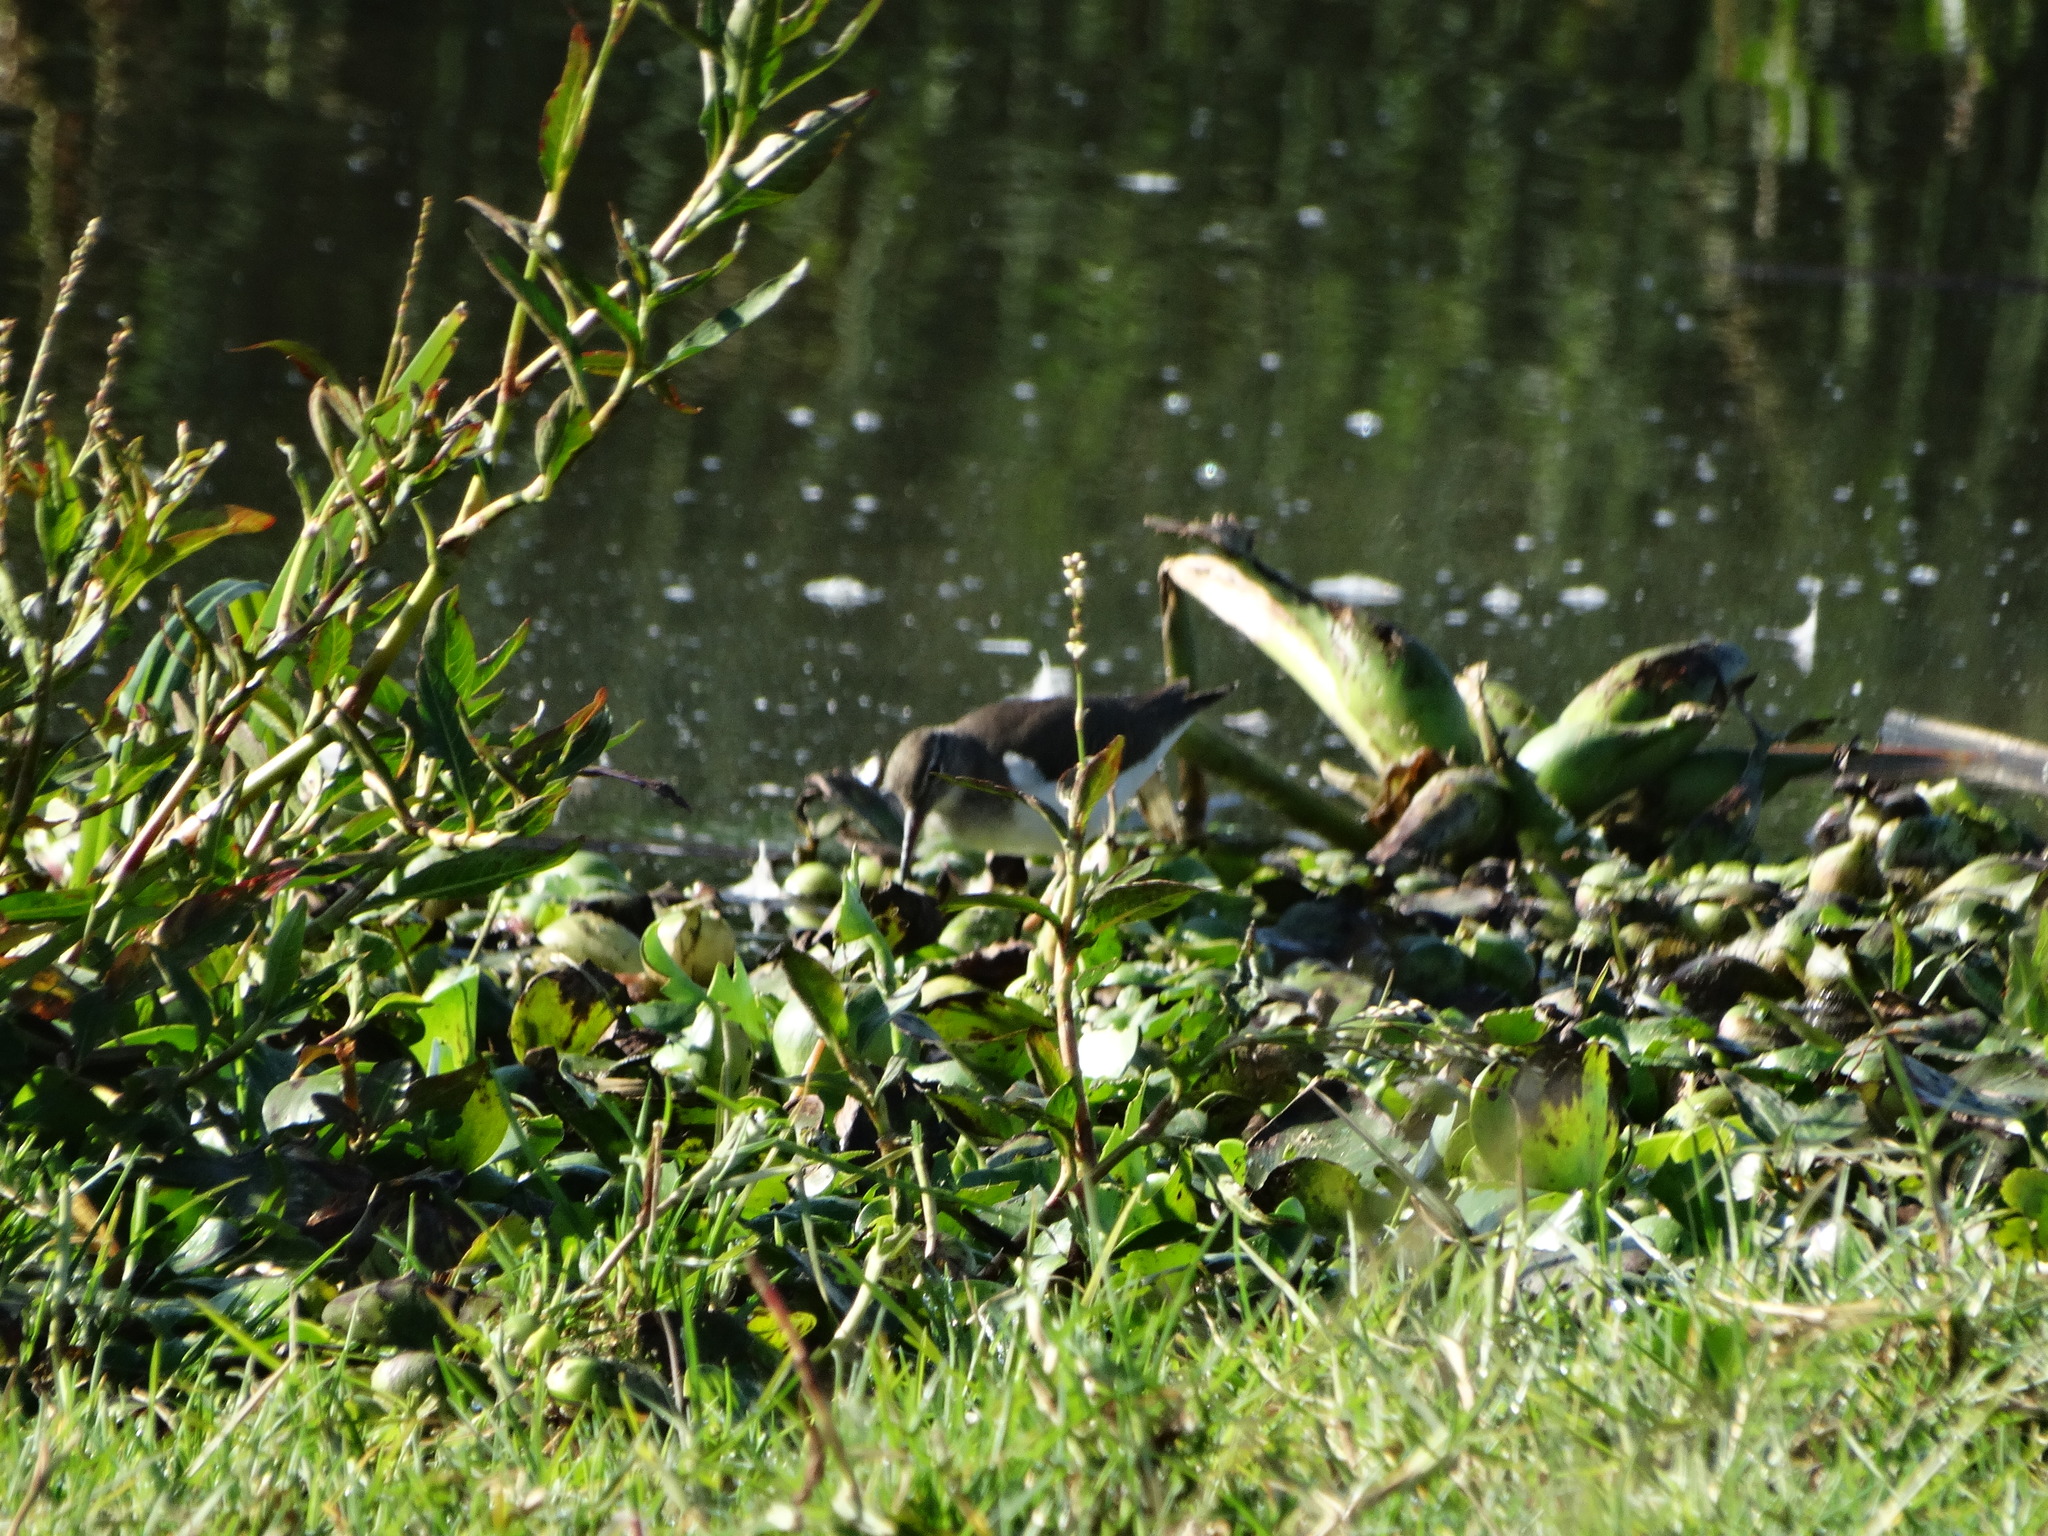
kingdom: Animalia
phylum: Chordata
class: Aves
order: Charadriiformes
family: Scolopacidae
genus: Actitis
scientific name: Actitis macularius
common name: Spotted sandpiper
